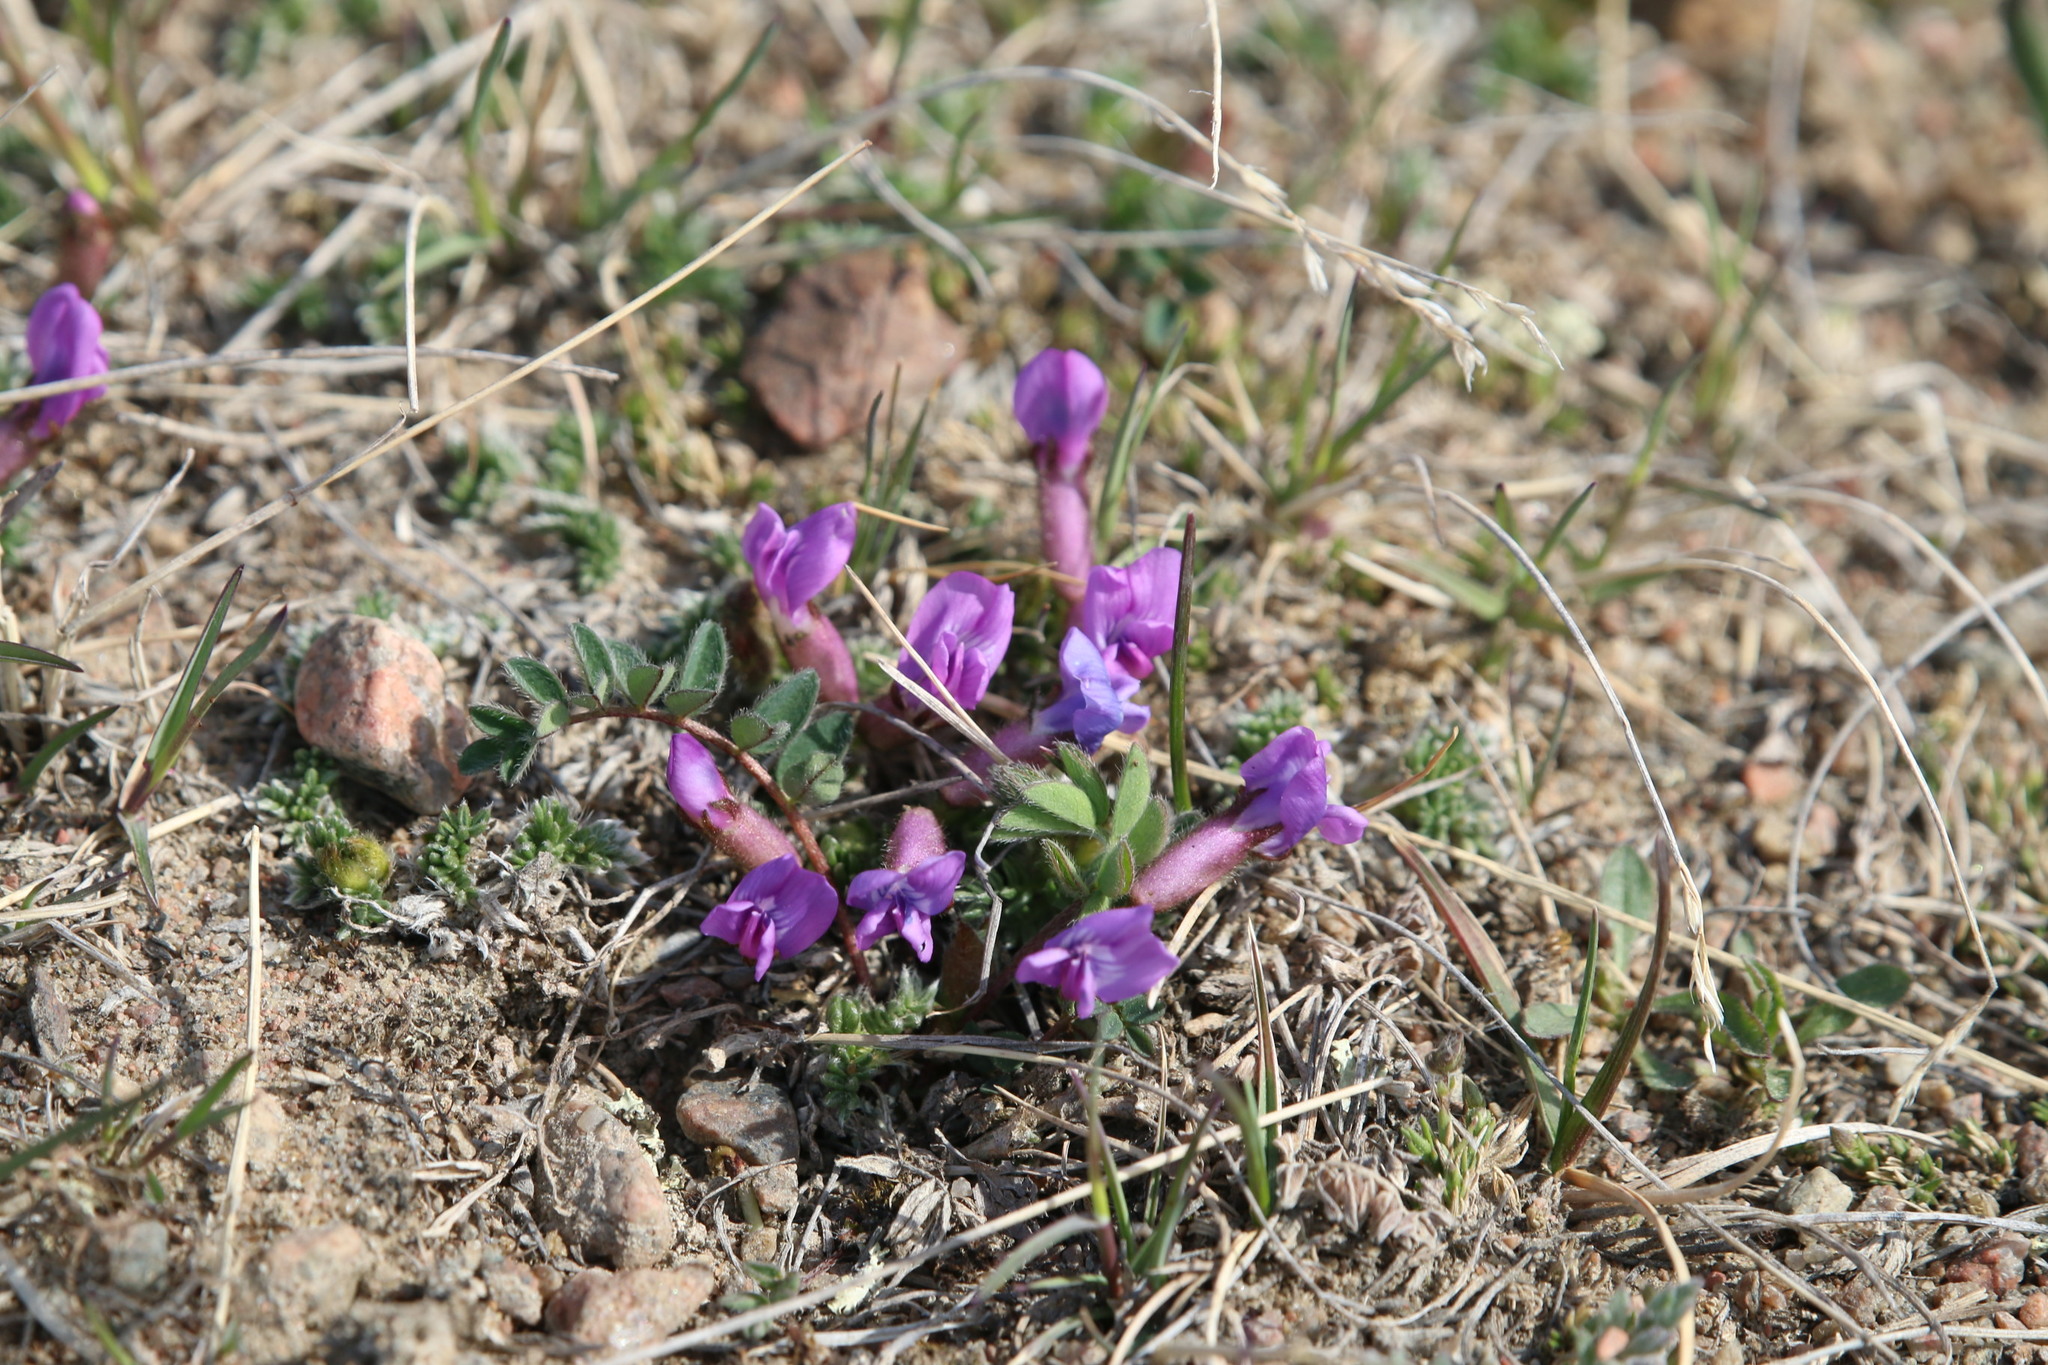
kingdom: Plantae
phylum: Tracheophyta
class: Magnoliopsida
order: Fabales
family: Fabaceae
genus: Oxytropis
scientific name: Oxytropis podocarpa
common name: Gray's oxytrope
